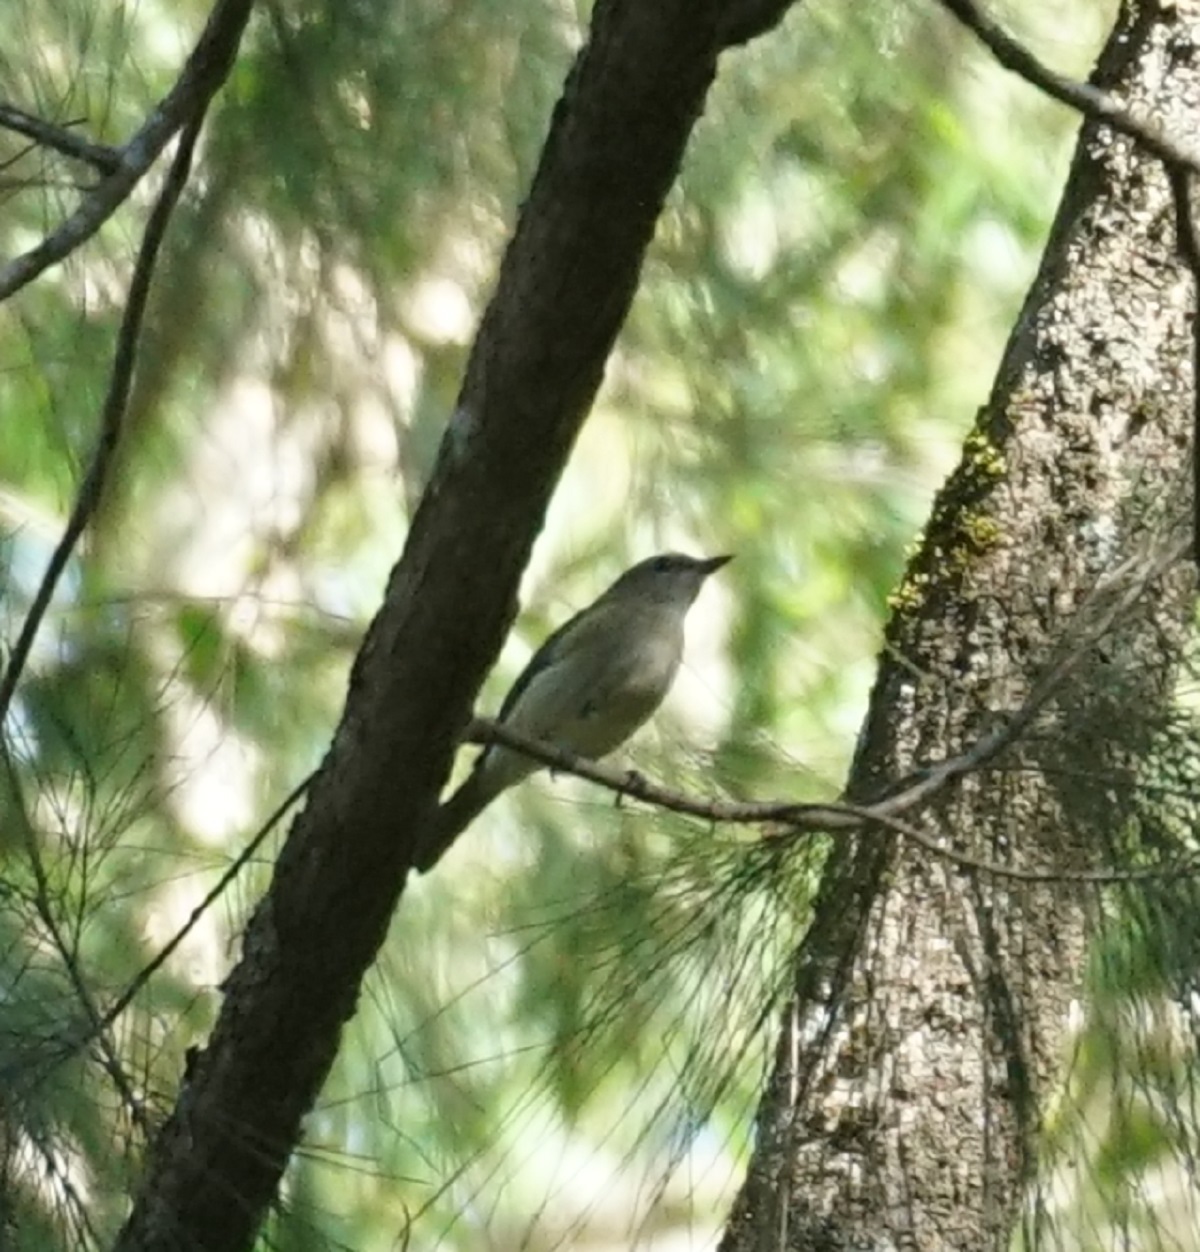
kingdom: Animalia
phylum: Chordata
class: Aves
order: Passeriformes
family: Pachycephalidae
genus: Pachycephala
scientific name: Pachycephala simplex
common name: Grey whistler
